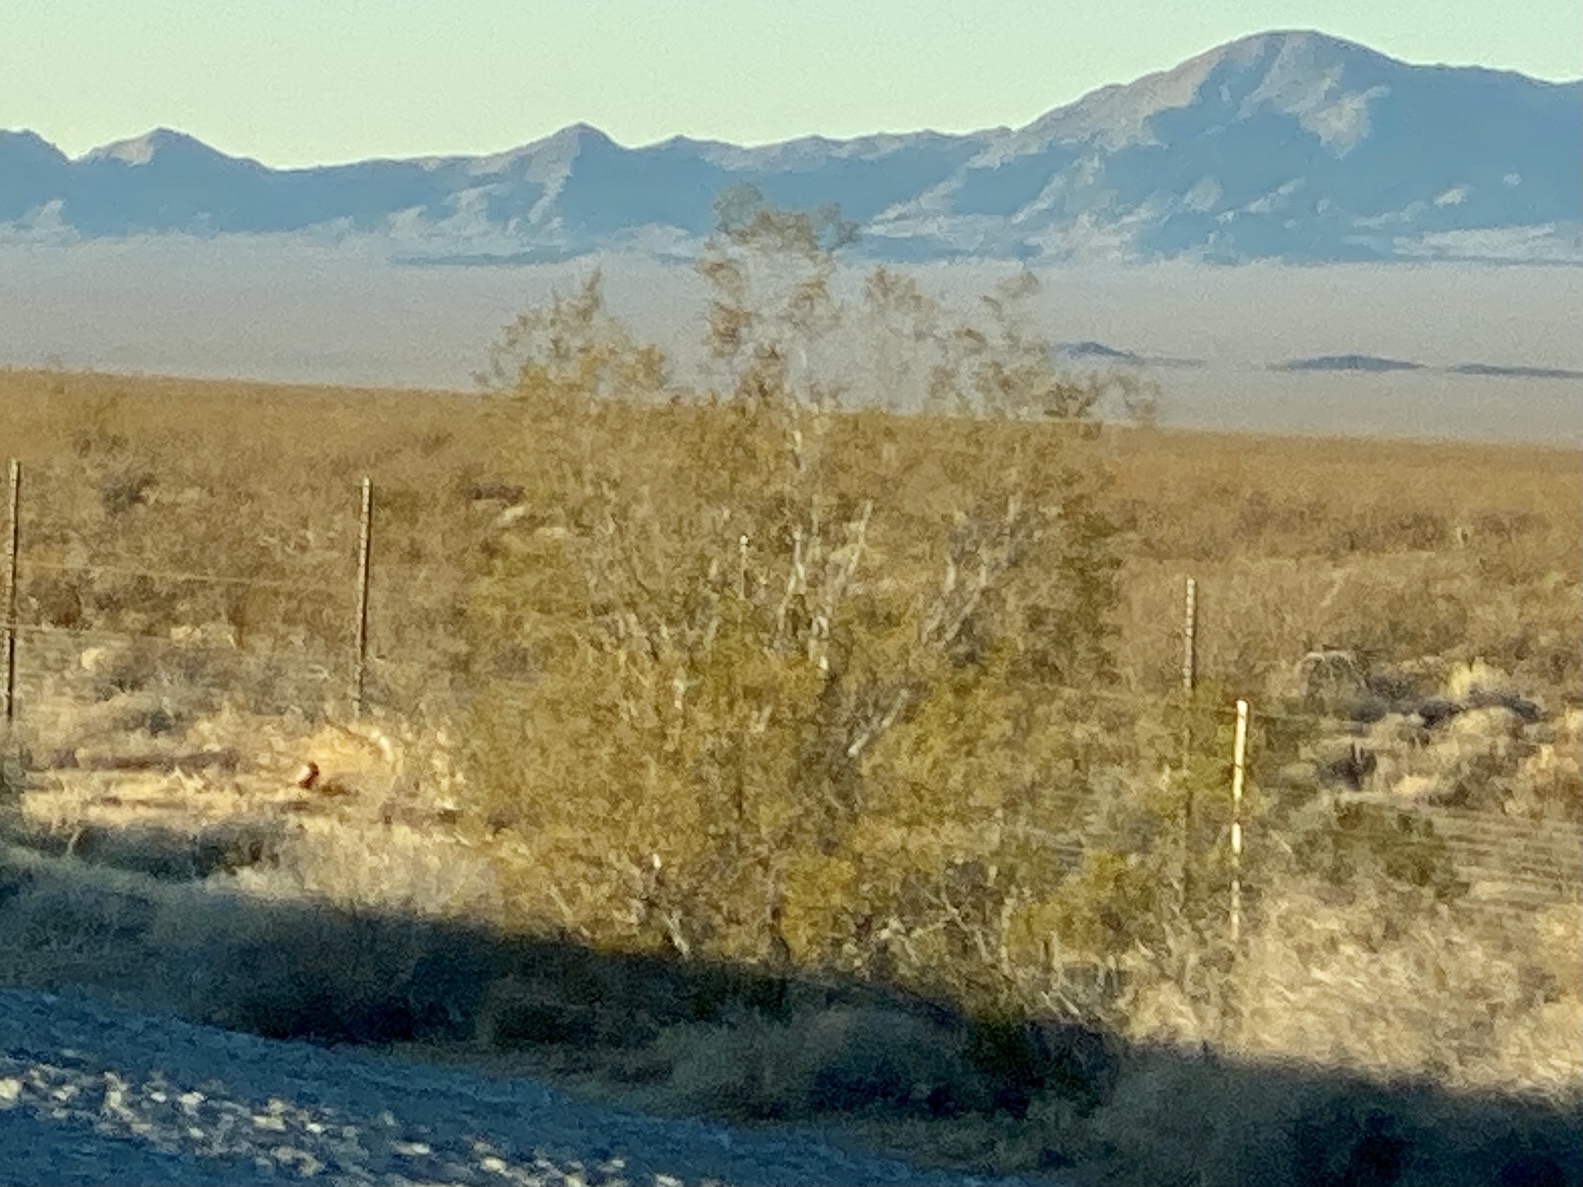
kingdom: Plantae
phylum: Tracheophyta
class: Magnoliopsida
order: Zygophyllales
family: Zygophyllaceae
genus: Larrea
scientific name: Larrea tridentata
